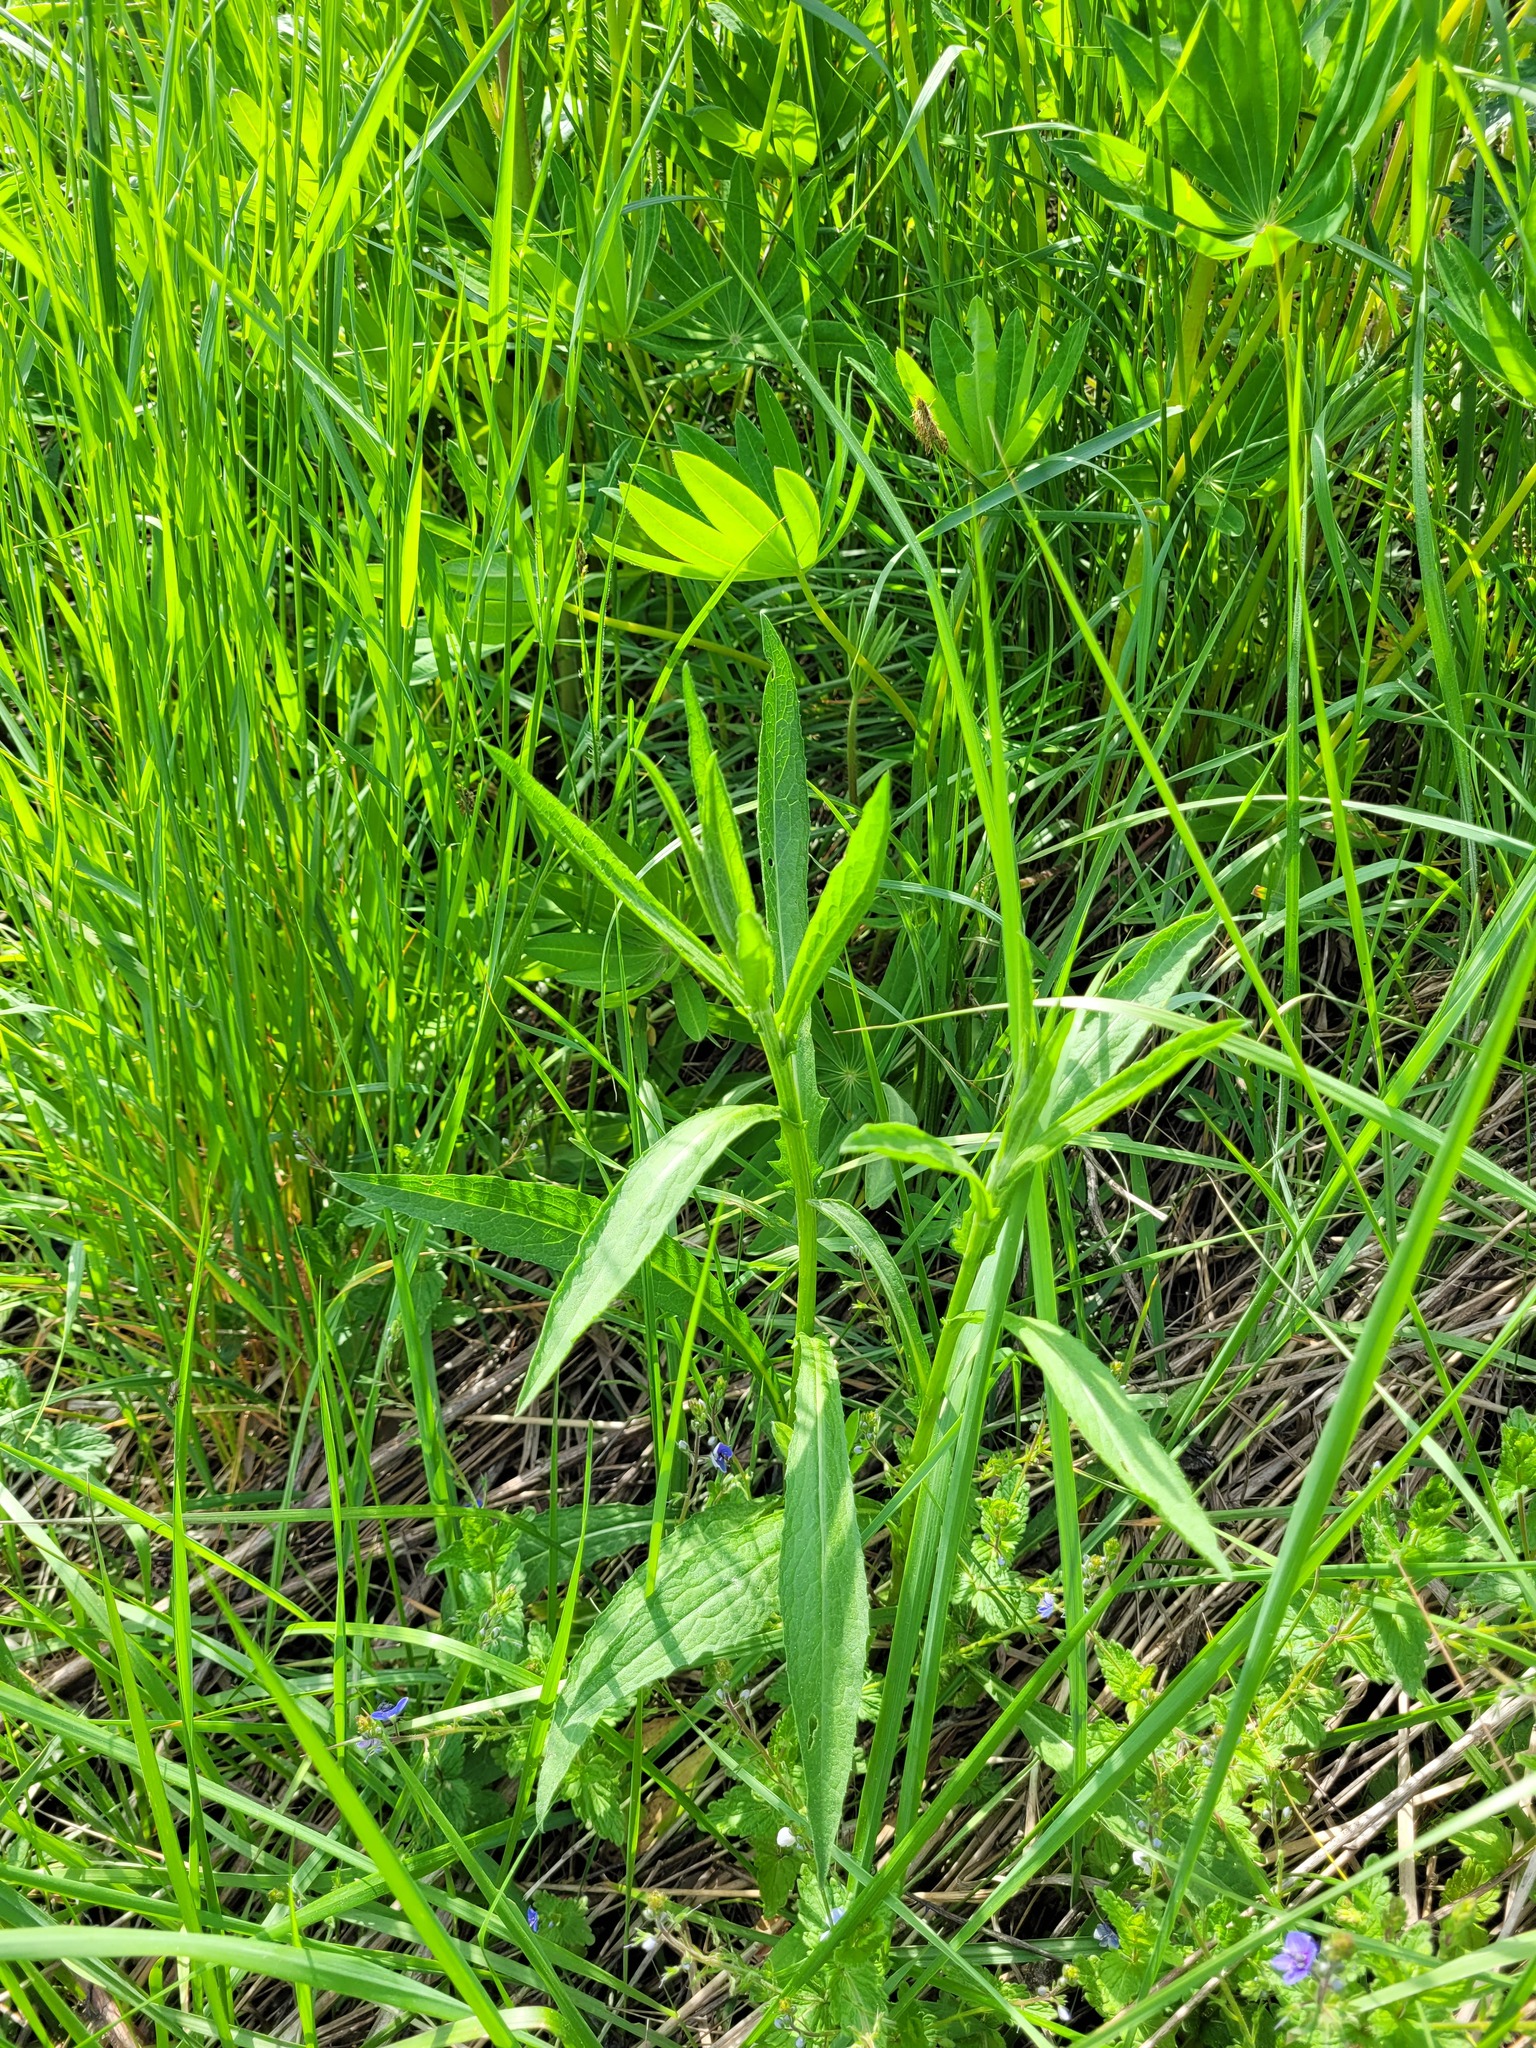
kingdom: Plantae
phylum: Tracheophyta
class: Magnoliopsida
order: Asterales
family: Asteraceae
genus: Centaurea
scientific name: Centaurea jacea
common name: Brown knapweed
